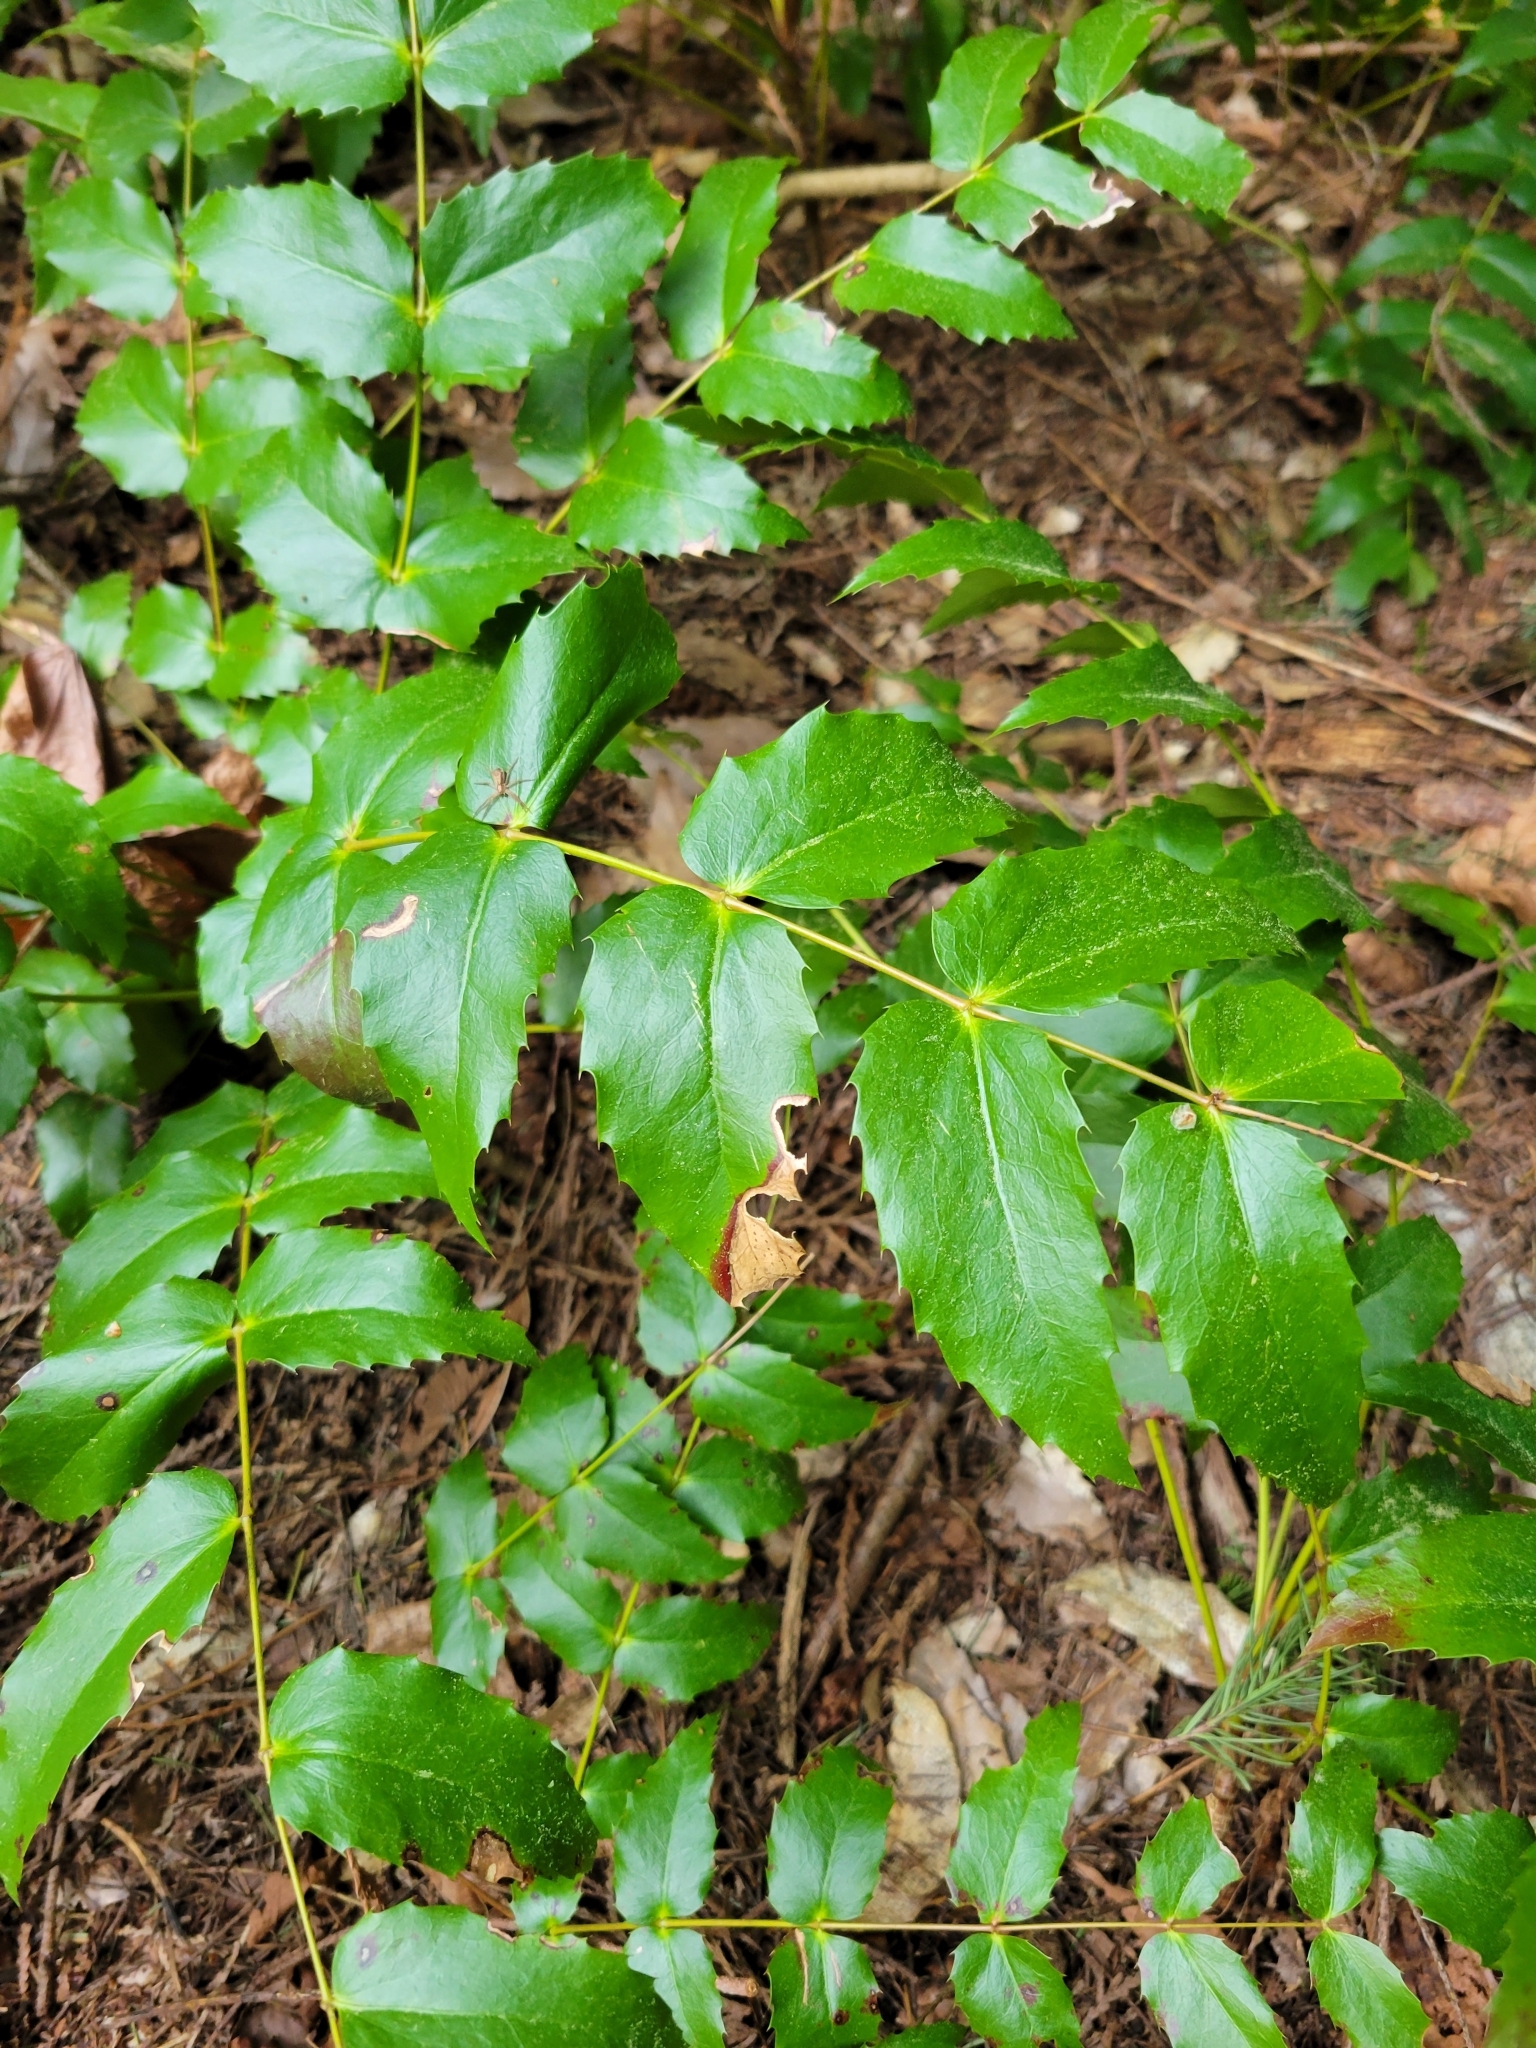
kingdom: Plantae
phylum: Tracheophyta
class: Magnoliopsida
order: Ranunculales
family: Berberidaceae
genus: Mahonia
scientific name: Mahonia nervosa
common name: Cascade oregon-grape
